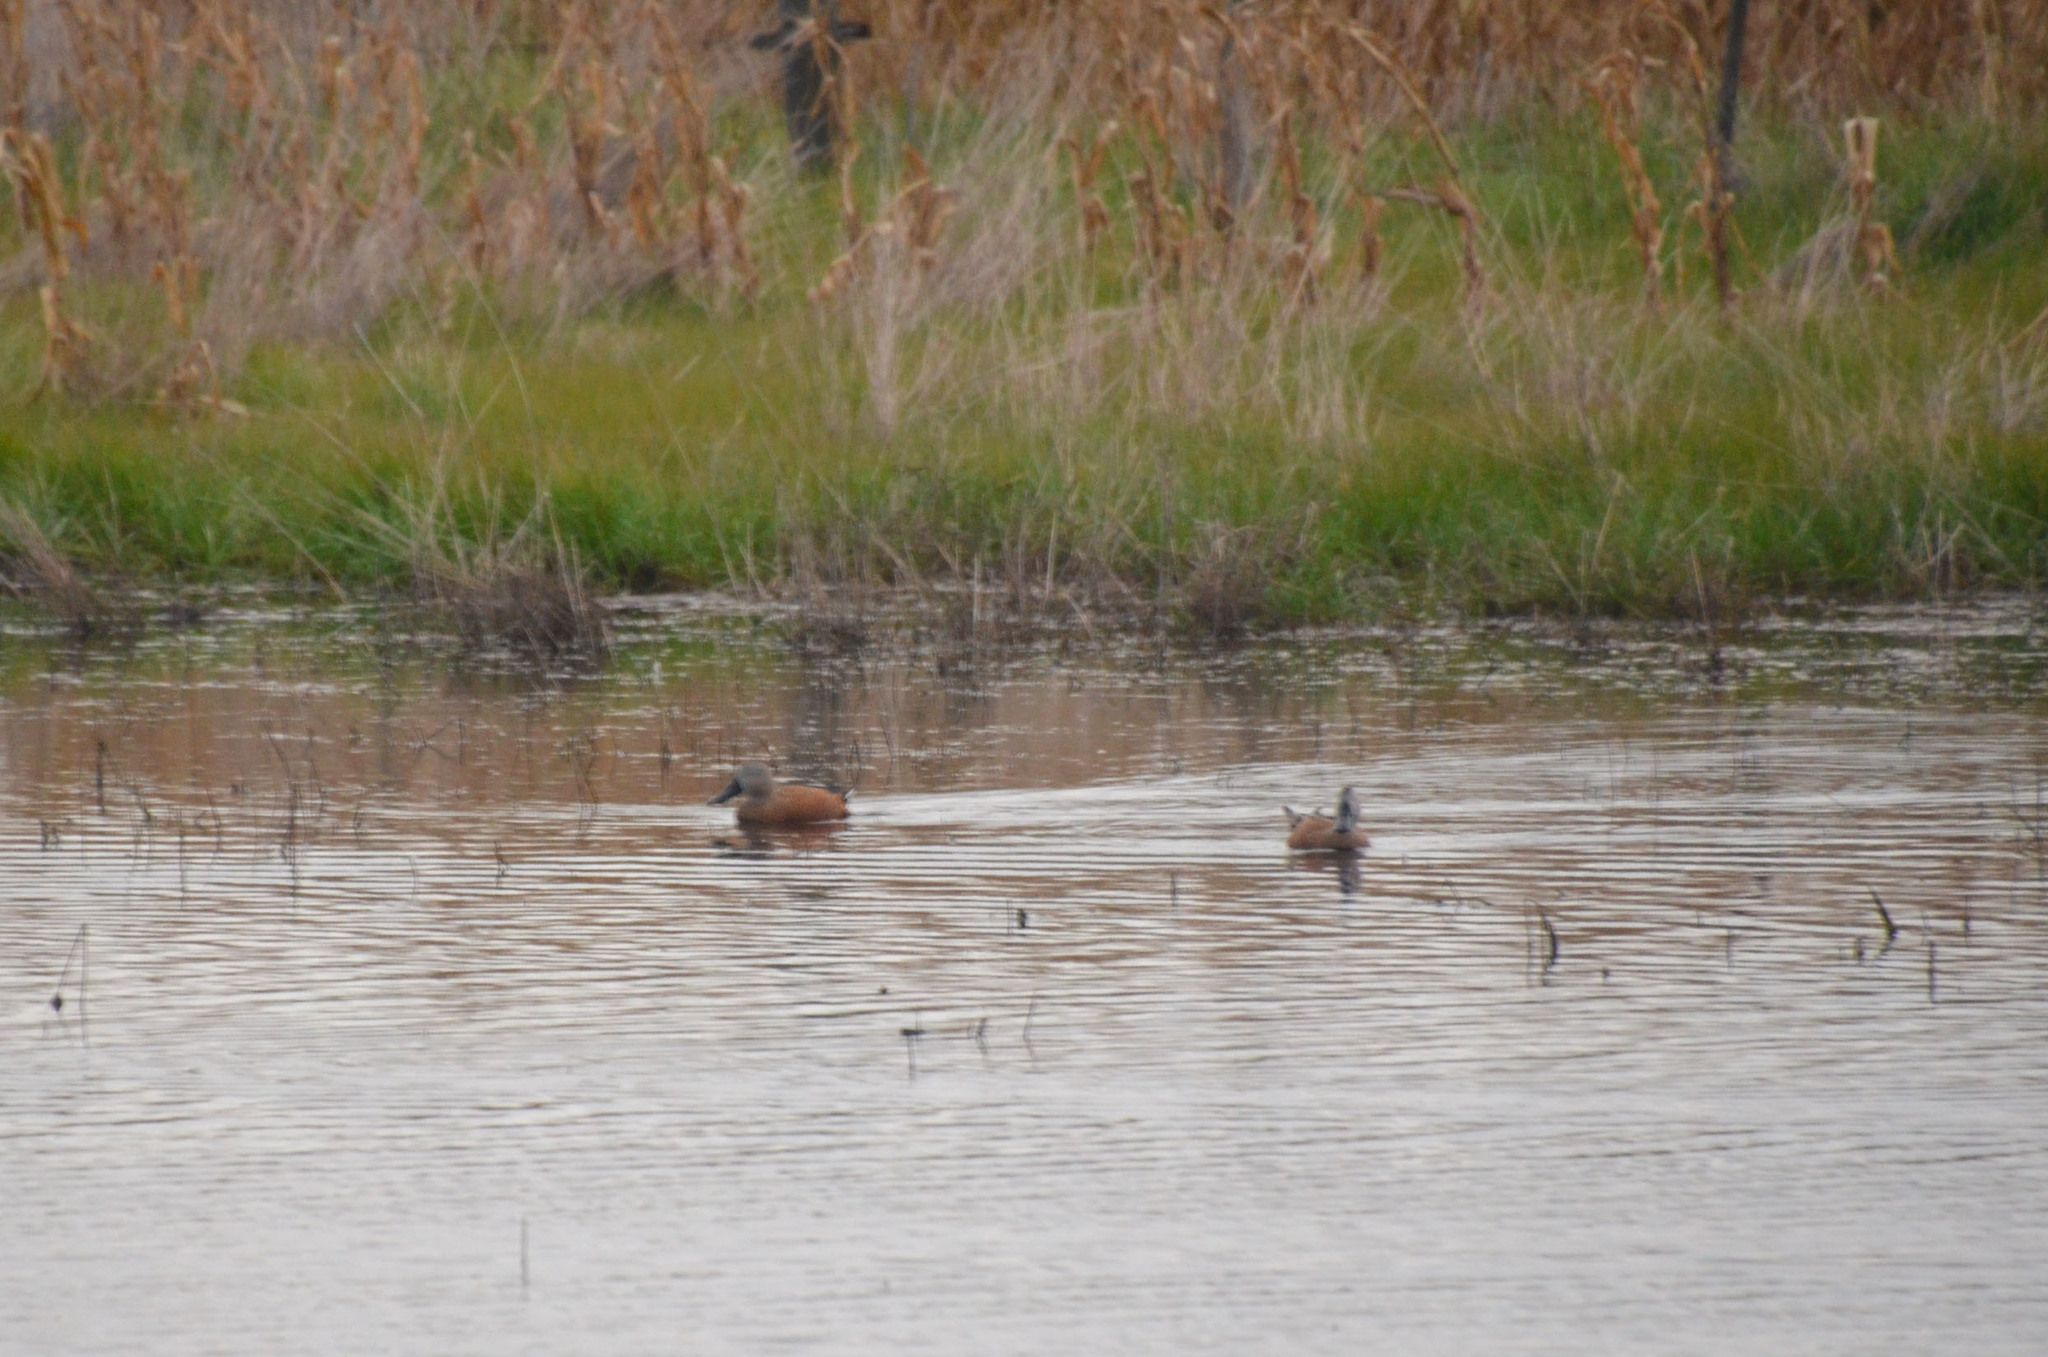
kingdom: Animalia
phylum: Chordata
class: Aves
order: Anseriformes
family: Anatidae
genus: Spatula
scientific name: Spatula platalea
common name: Red shoveler
